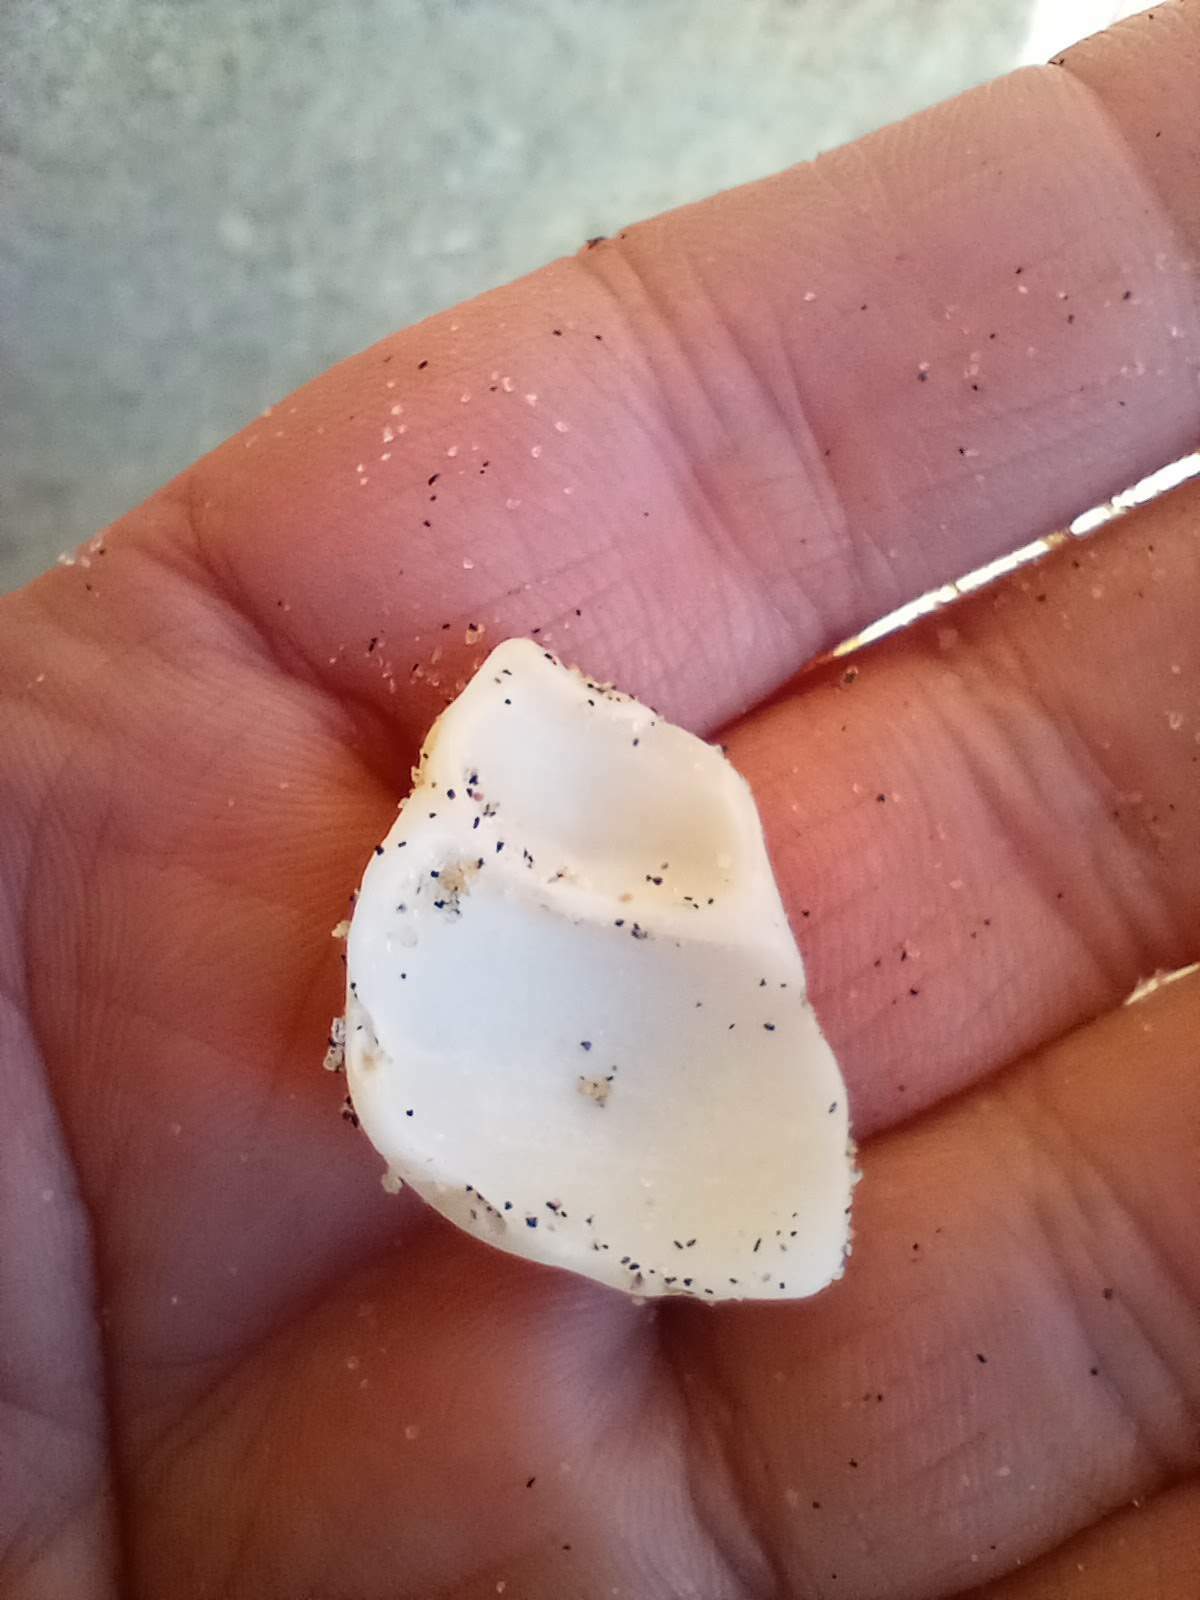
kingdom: Animalia
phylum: Mollusca
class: Gastropoda
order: Neogastropoda
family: Austrosiphonidae
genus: Kelletia
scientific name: Kelletia kelletii
